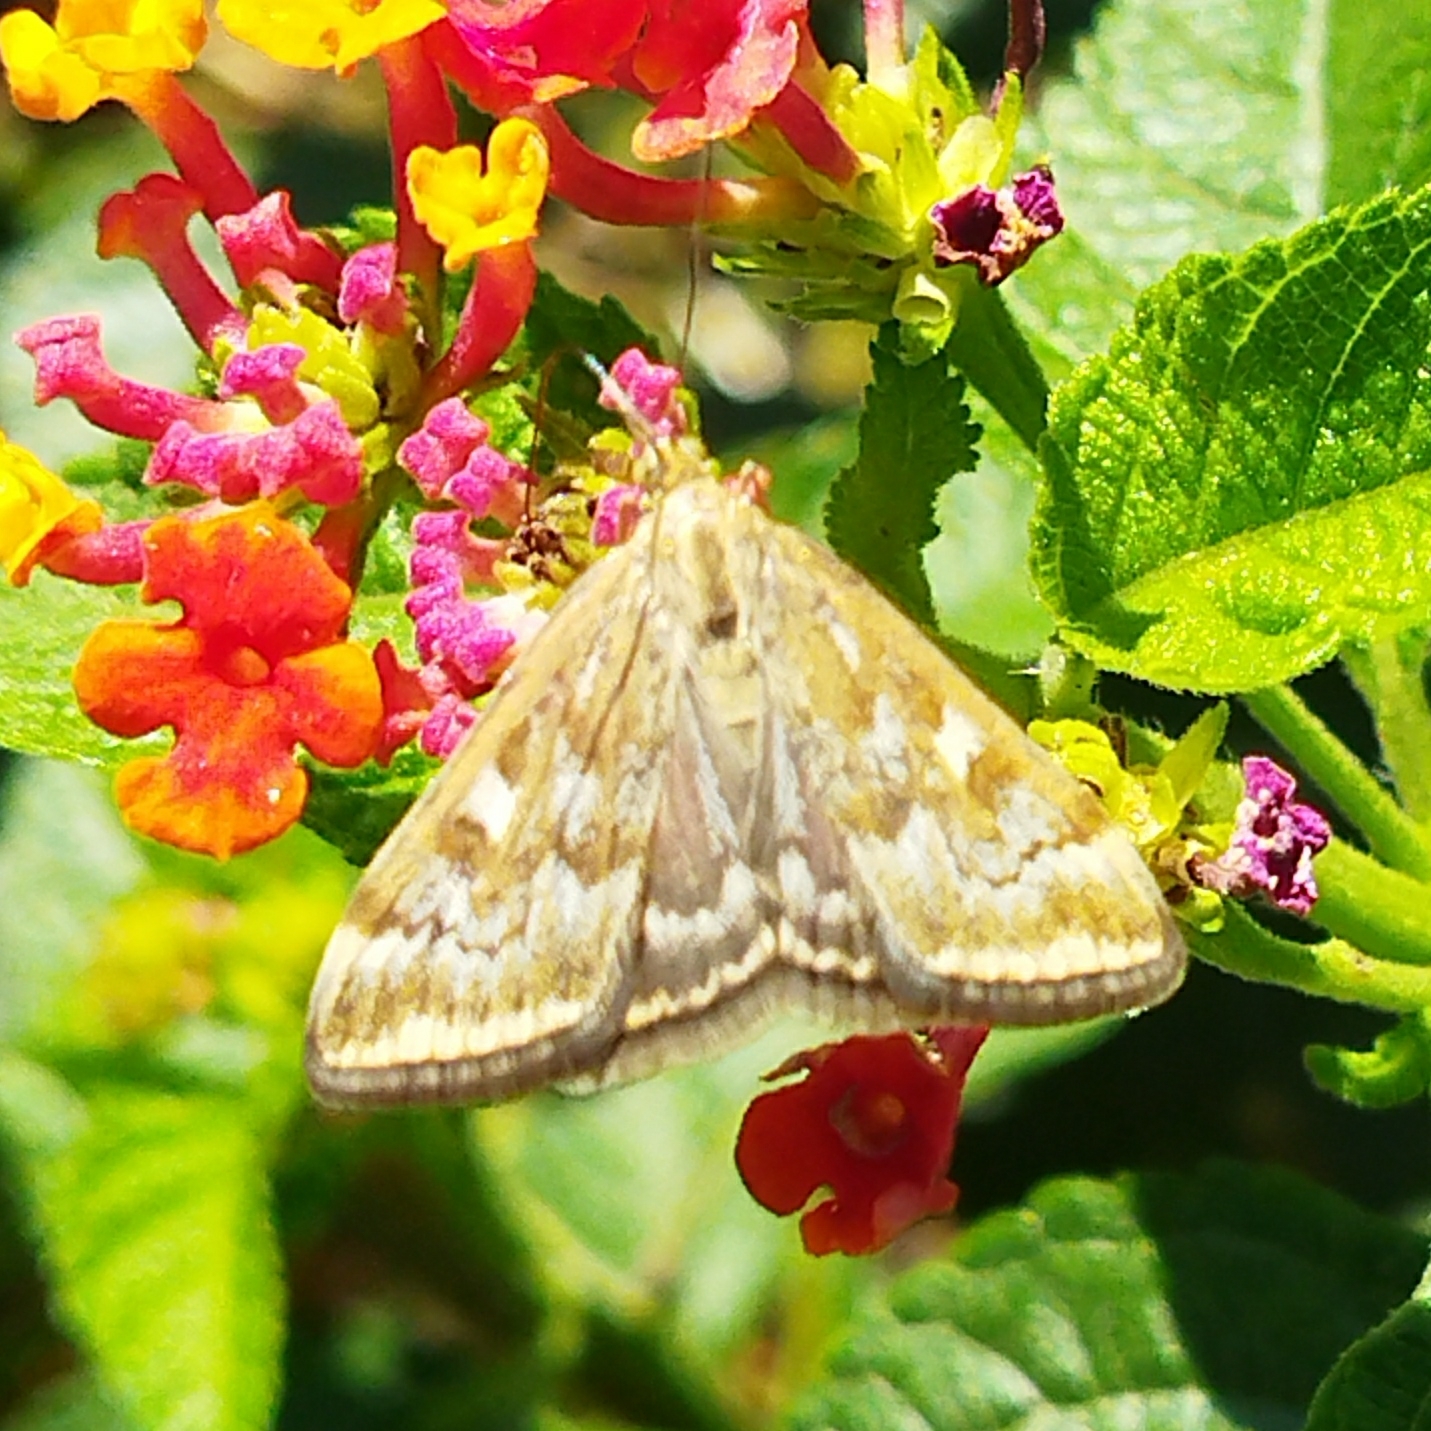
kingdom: Animalia
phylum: Arthropoda
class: Insecta
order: Lepidoptera
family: Crambidae
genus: Loxostege
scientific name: Loxostege sticticalis
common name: Crambid moth
